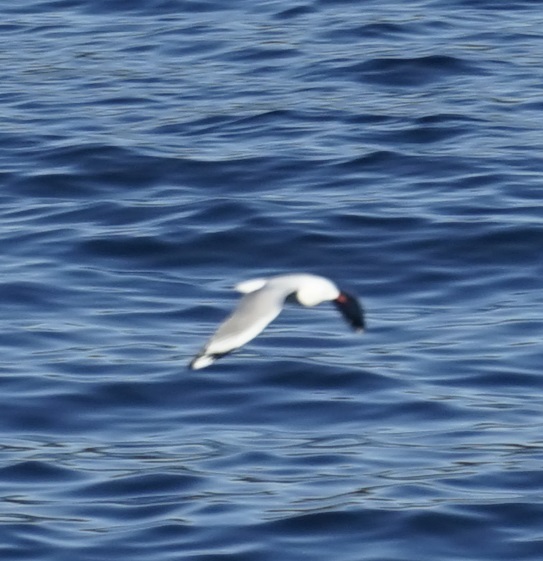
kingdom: Animalia
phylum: Chordata
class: Aves
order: Charadriiformes
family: Laridae
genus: Chroicocephalus
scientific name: Chroicocephalus novaehollandiae
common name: Silver gull
